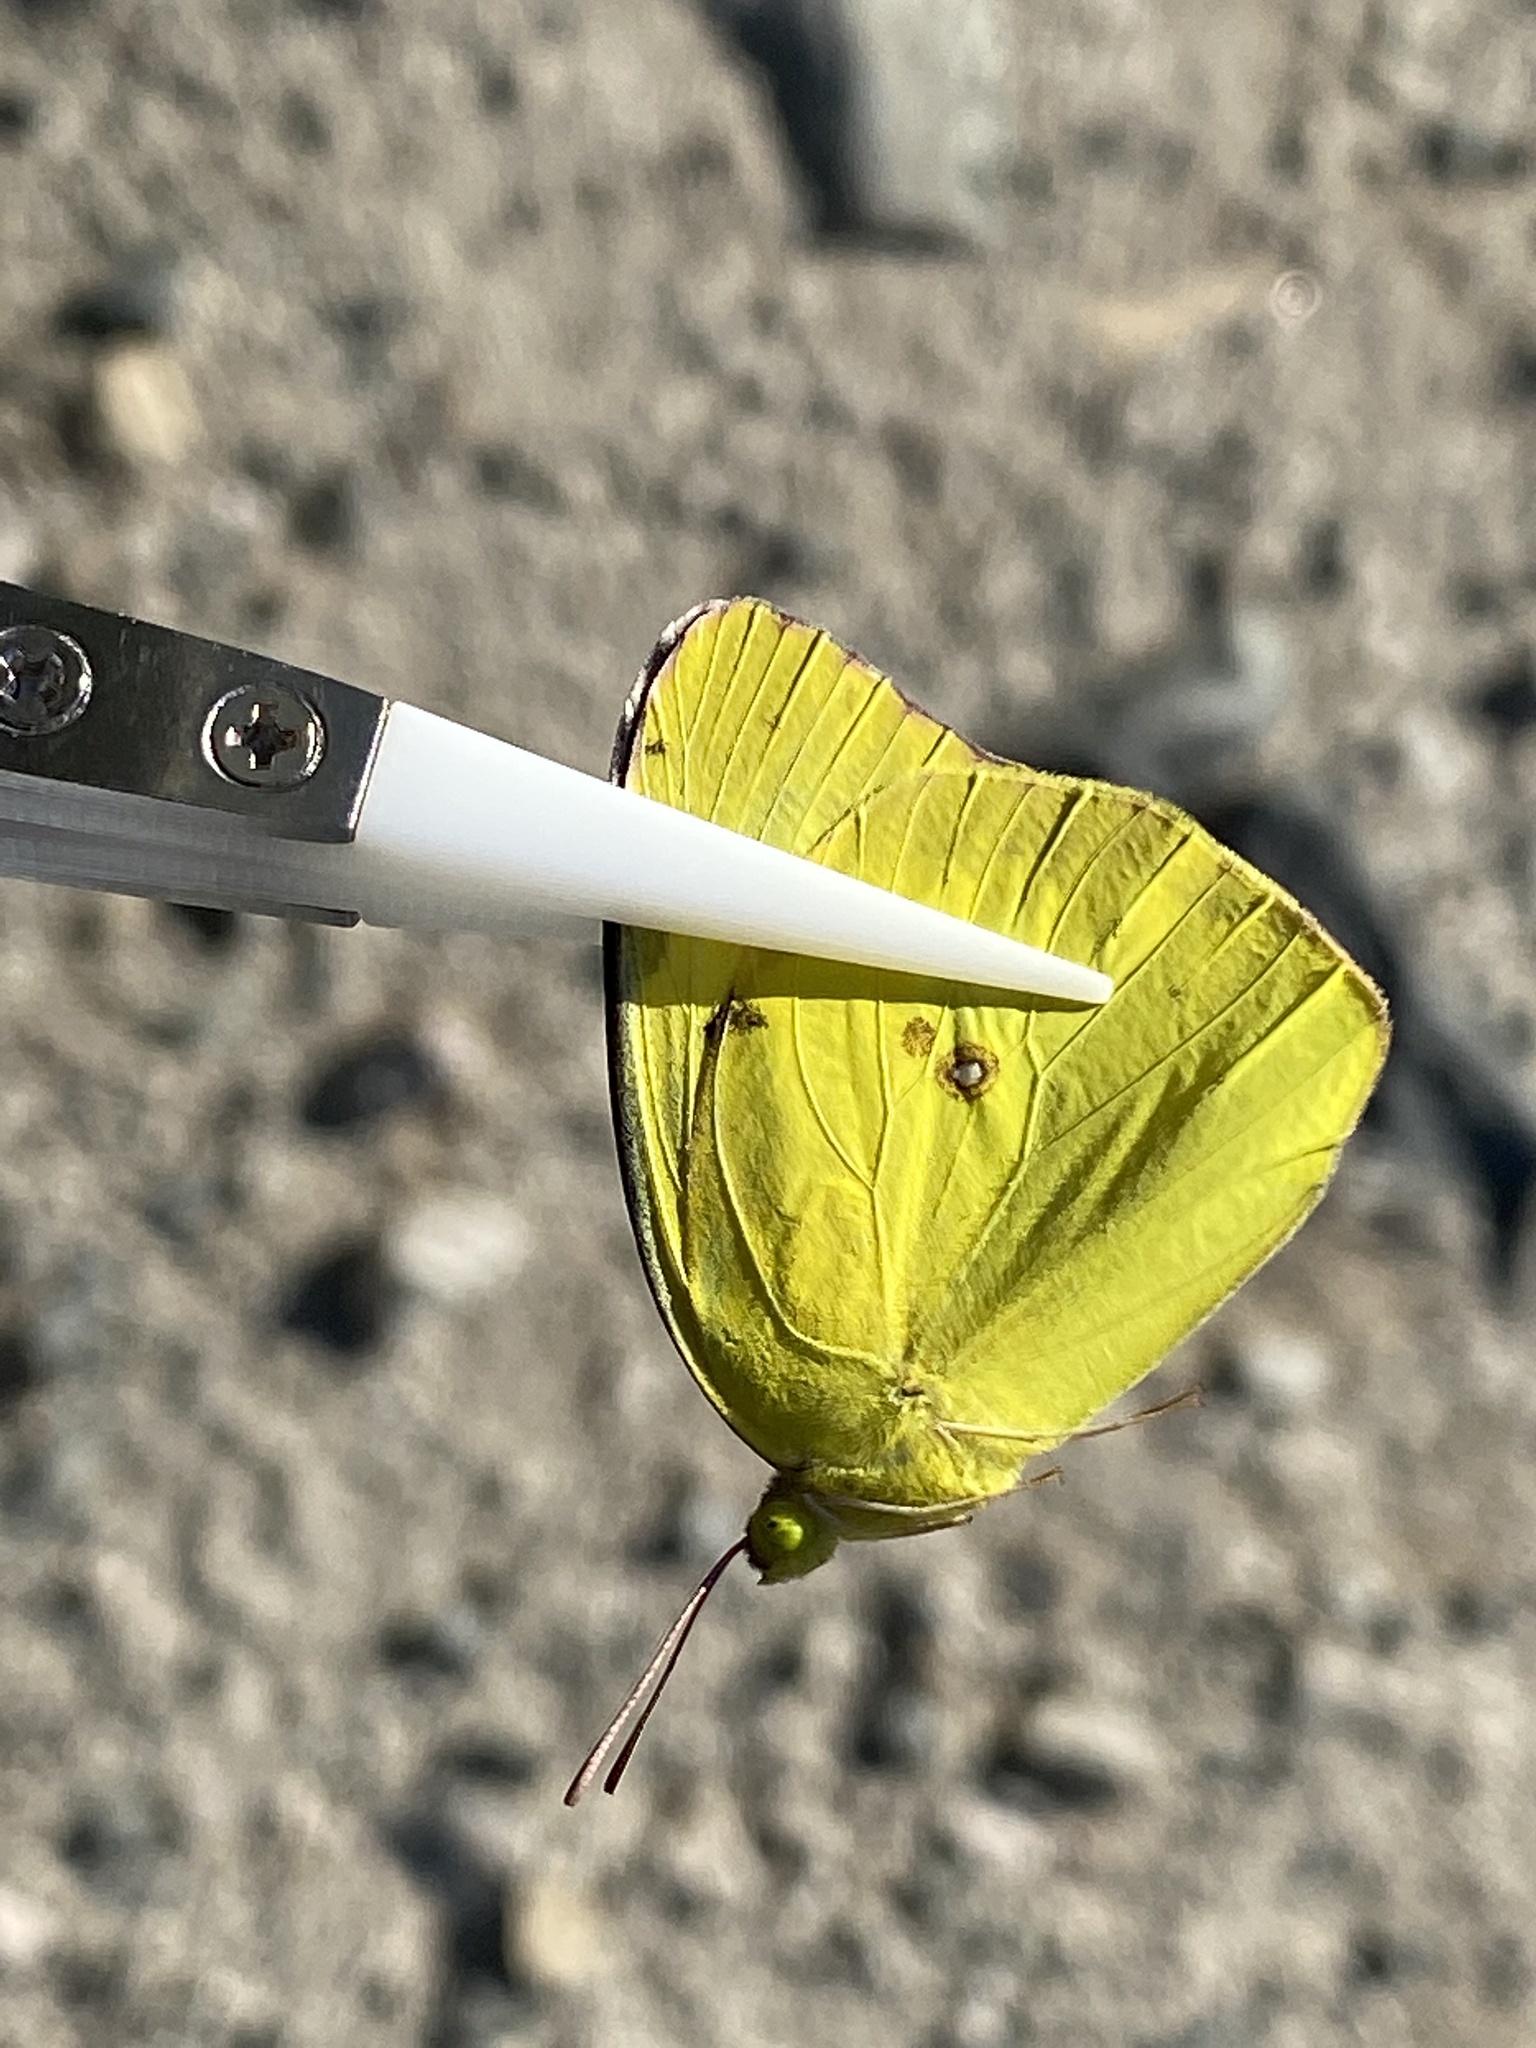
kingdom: Animalia
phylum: Arthropoda
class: Insecta
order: Lepidoptera
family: Pieridae
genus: Zerene
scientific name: Zerene cesonia
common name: Southern dogface
